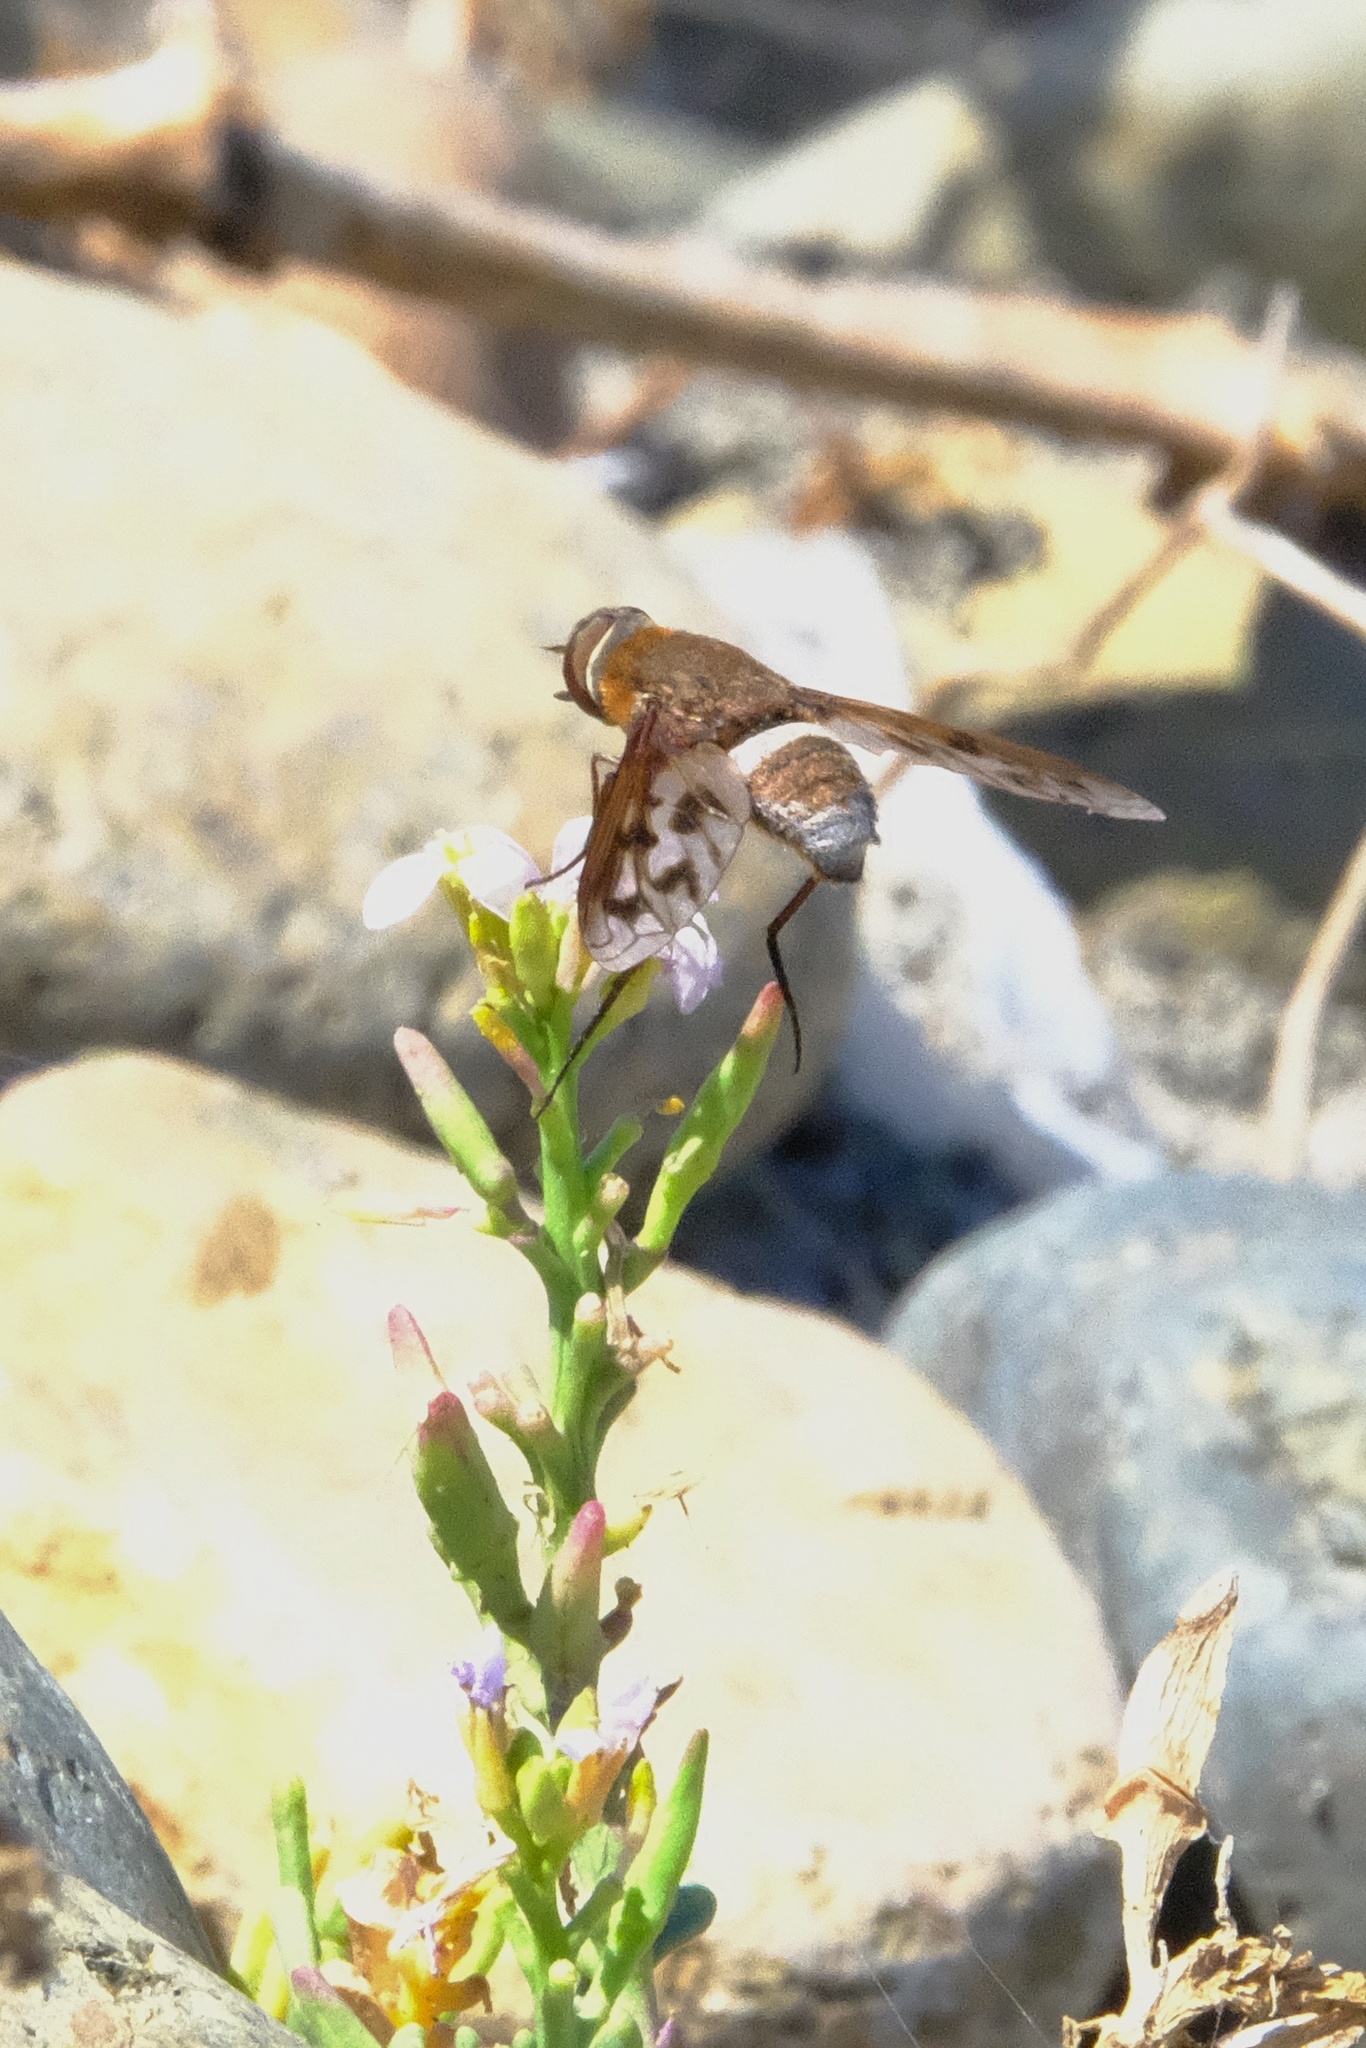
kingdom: Animalia
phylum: Arthropoda
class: Insecta
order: Diptera
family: Bombyliidae
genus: Nyia
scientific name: Nyia gazophylax
